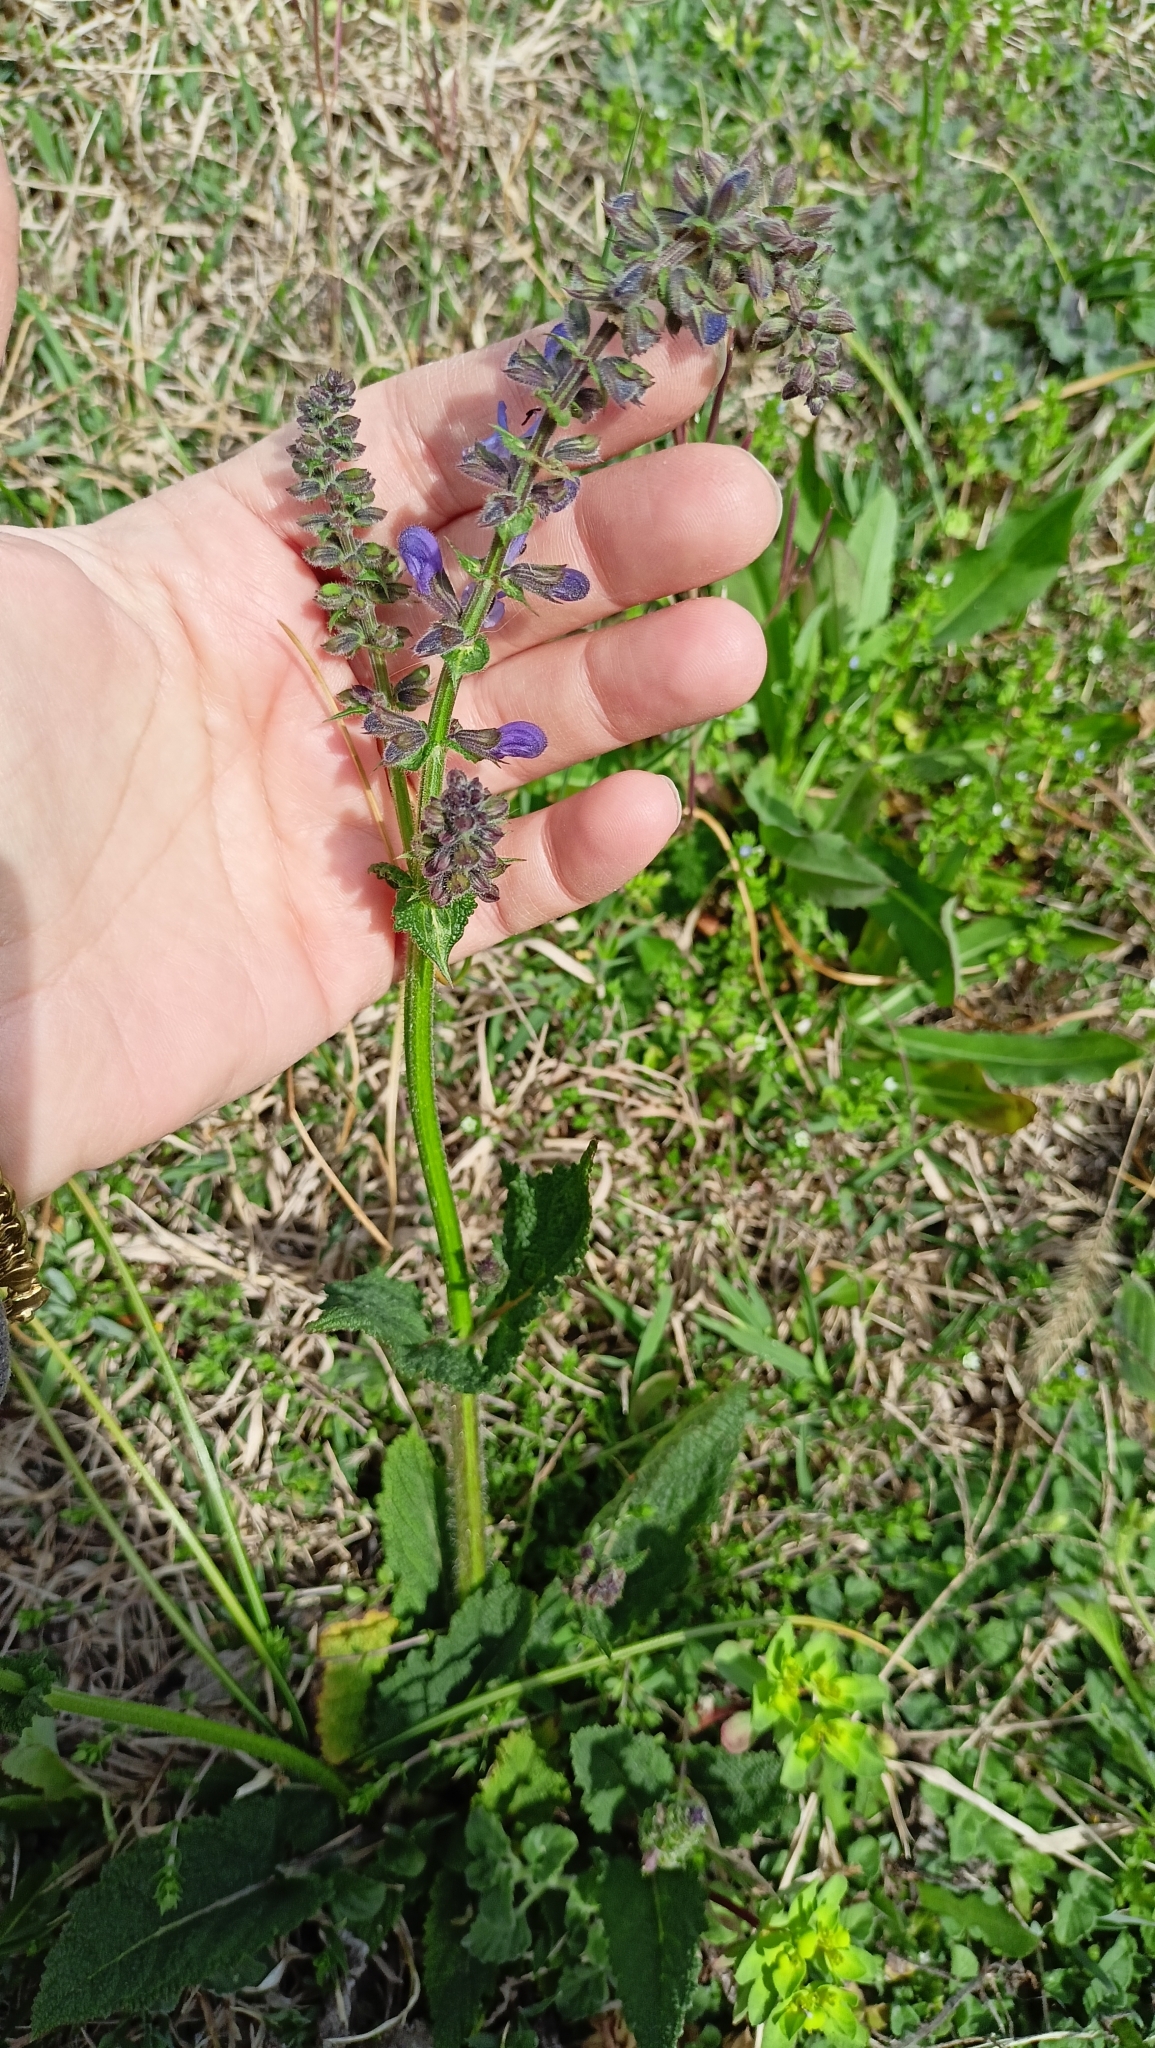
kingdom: Plantae
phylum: Tracheophyta
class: Magnoliopsida
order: Lamiales
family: Lamiaceae
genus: Salvia
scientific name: Salvia pratensis
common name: Meadow sage
